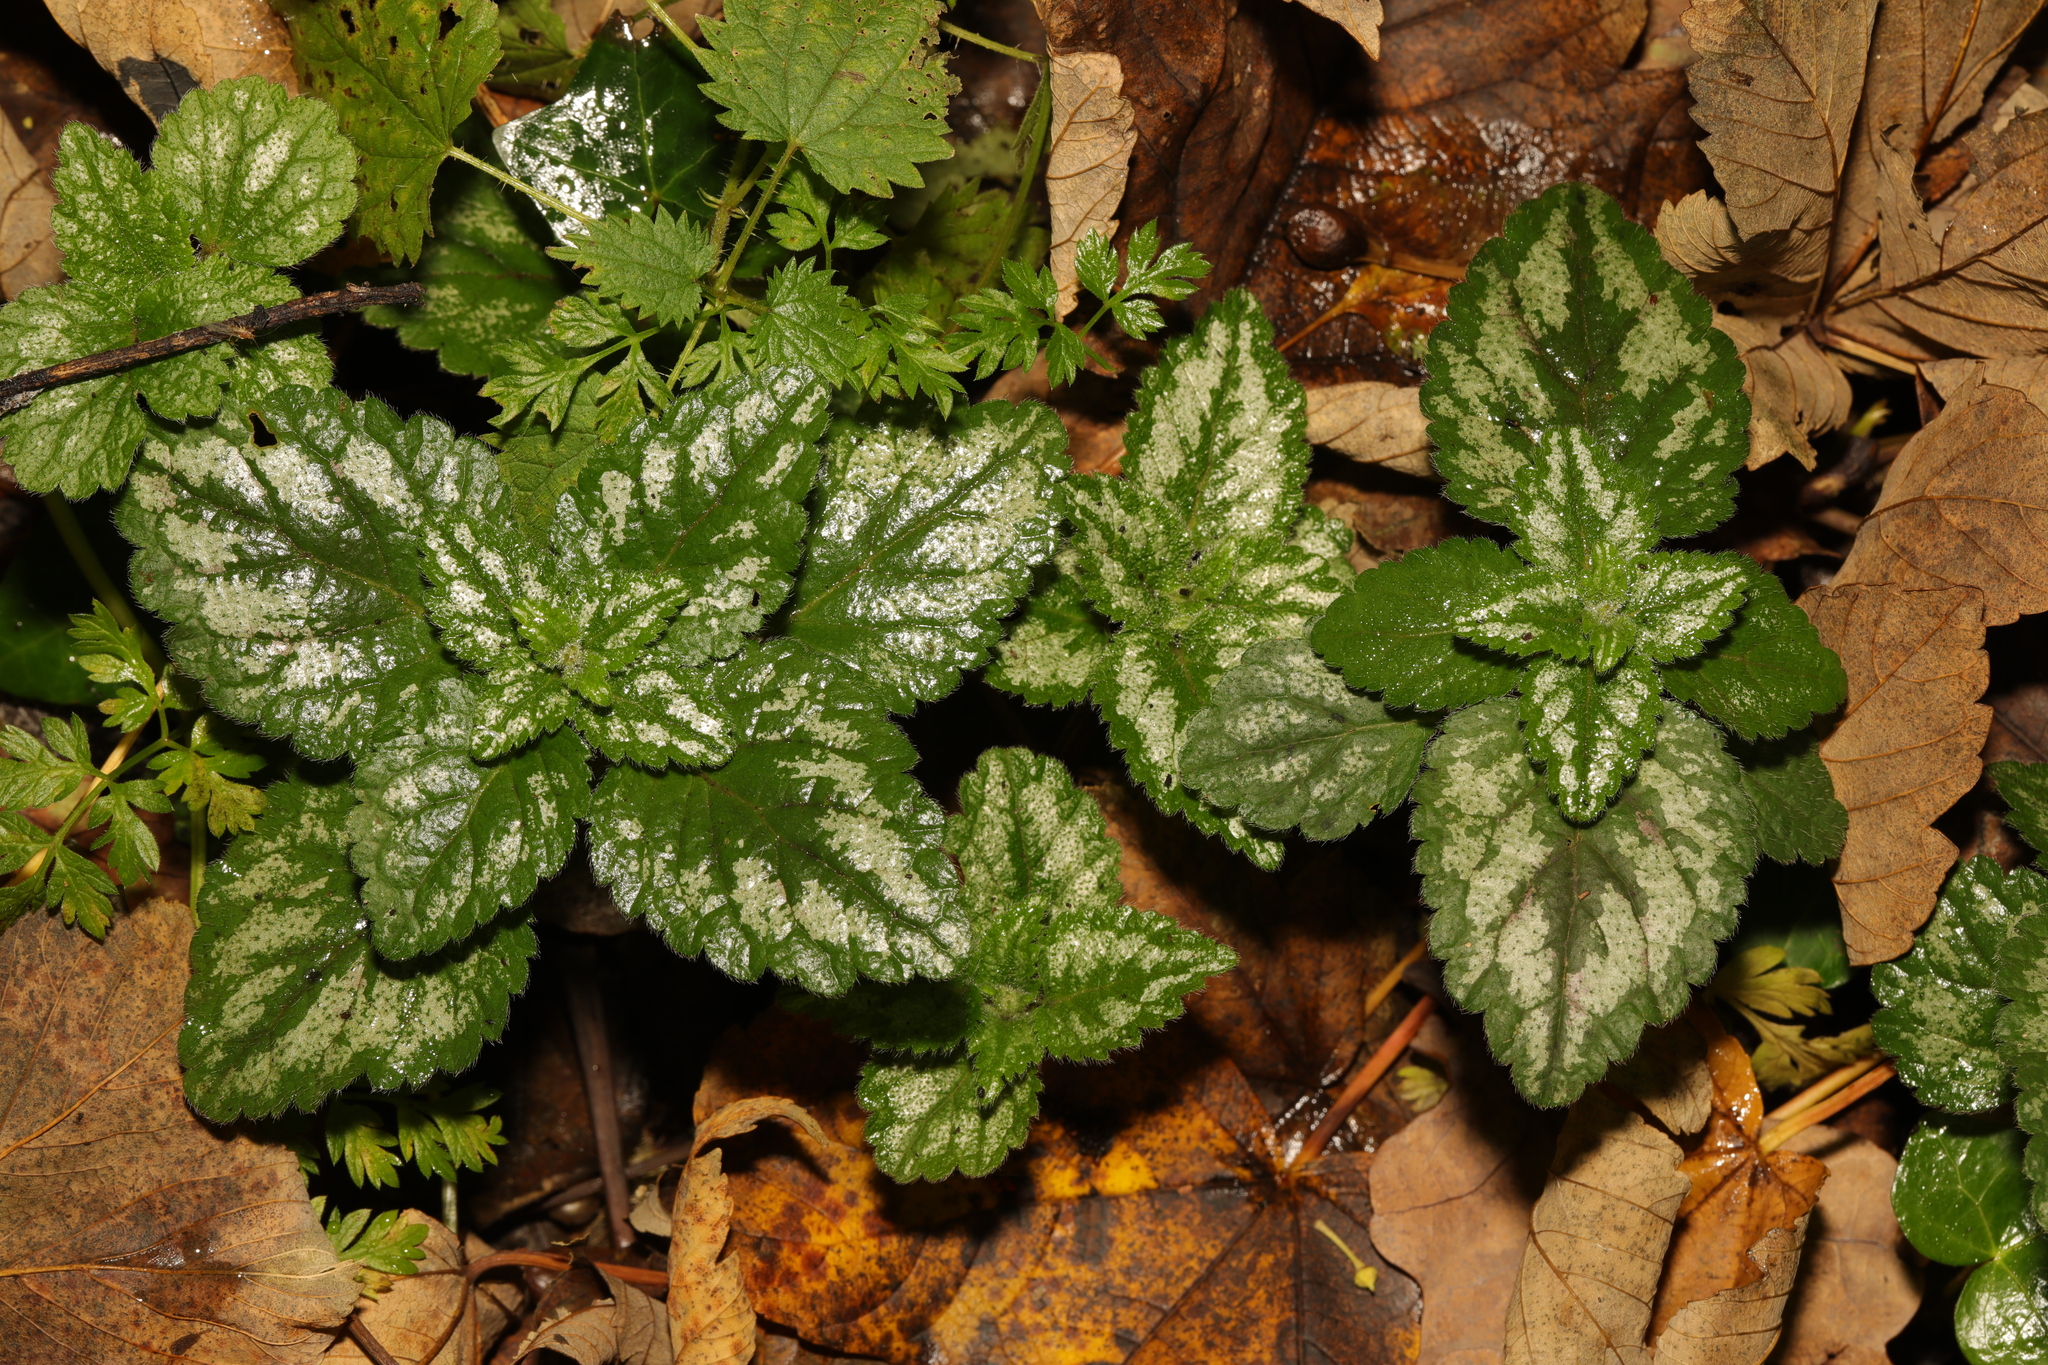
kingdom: Plantae
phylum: Tracheophyta
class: Magnoliopsida
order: Lamiales
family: Lamiaceae
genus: Lamium
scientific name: Lamium galeobdolon
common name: Yellow archangel
